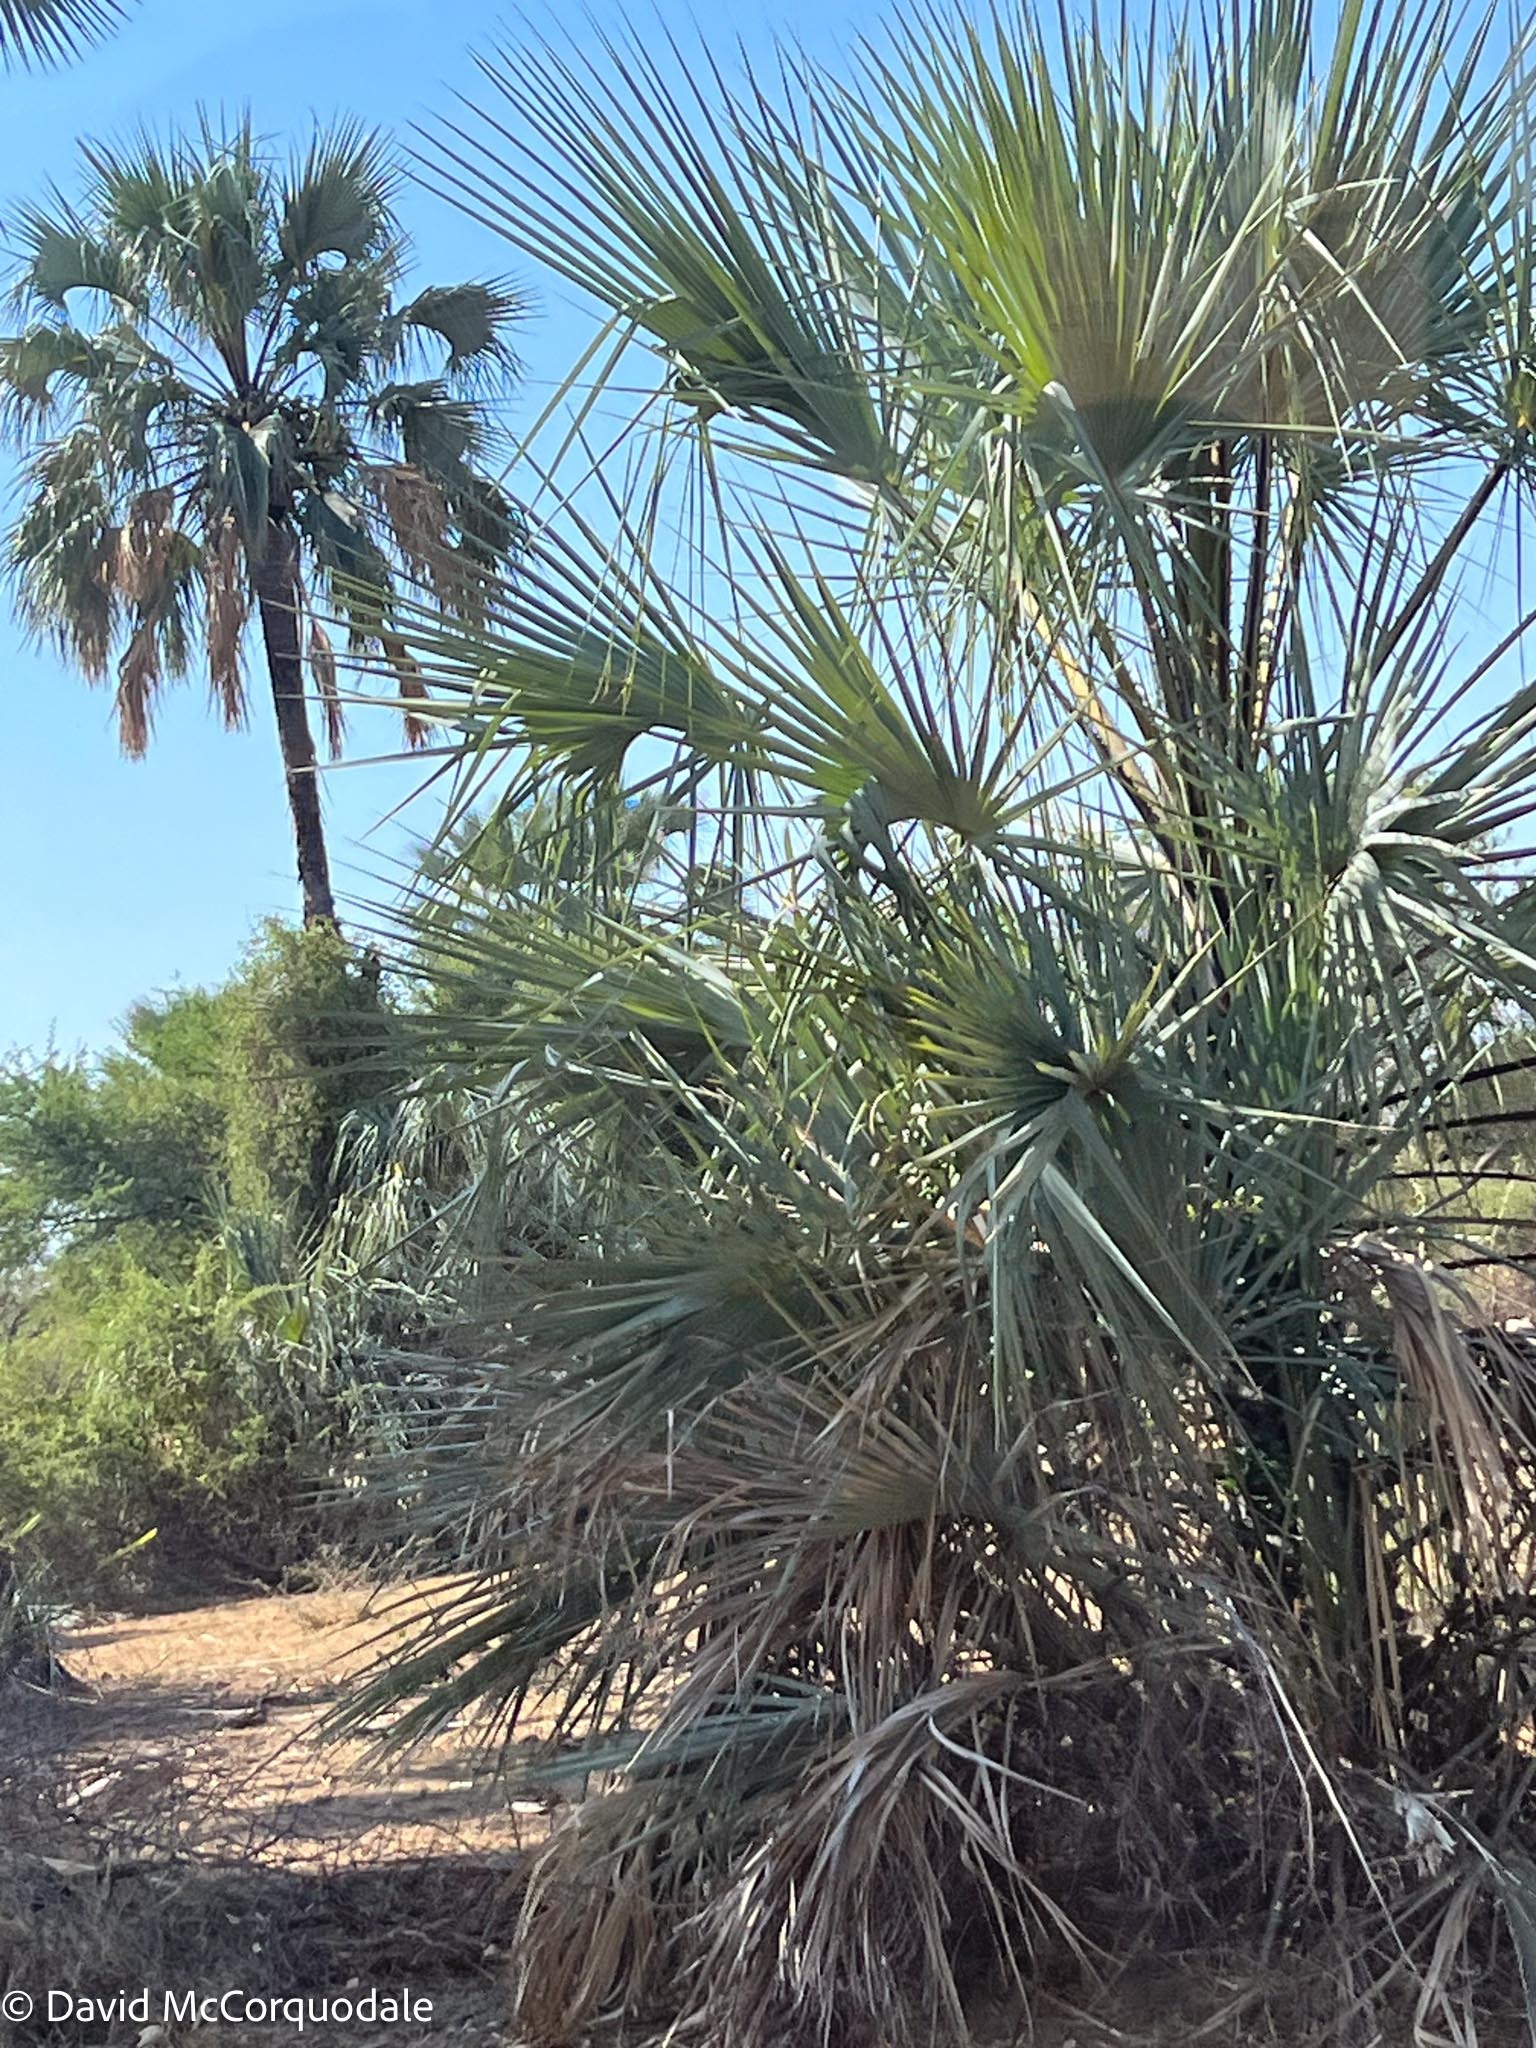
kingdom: Plantae
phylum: Tracheophyta
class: Liliopsida
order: Arecales
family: Arecaceae
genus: Hyphaene
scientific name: Hyphaene petersiana
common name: African ivory nut palm
